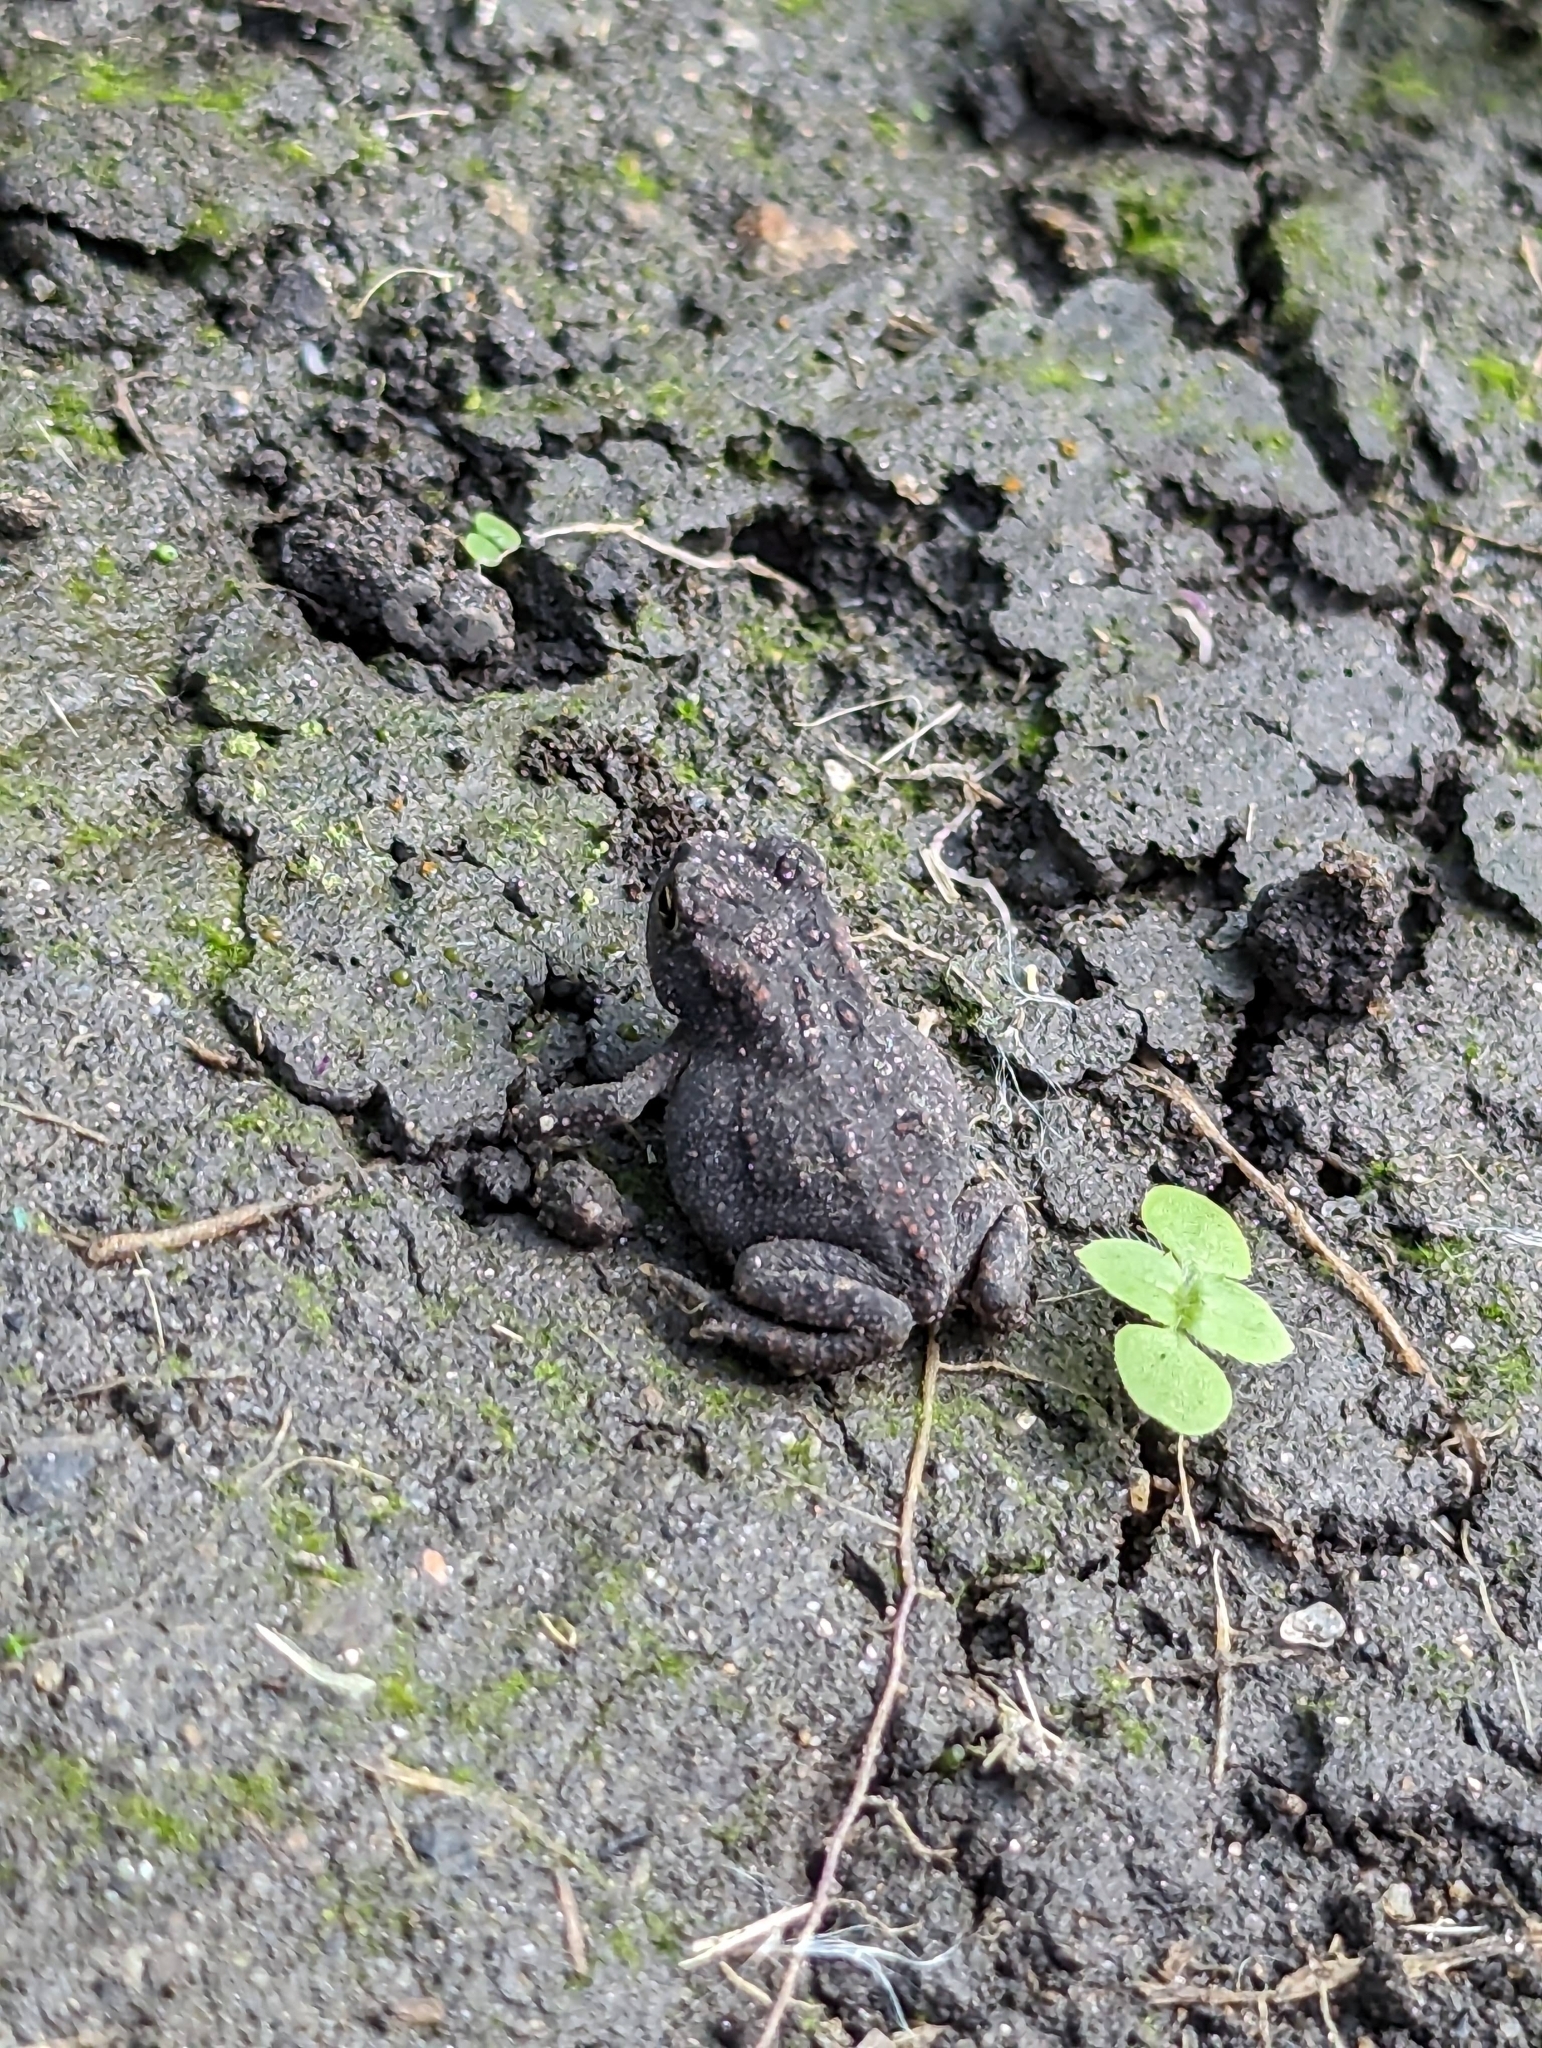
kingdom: Animalia
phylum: Chordata
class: Amphibia
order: Anura
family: Bufonidae
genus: Anaxyrus
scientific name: Anaxyrus americanus
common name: American toad
